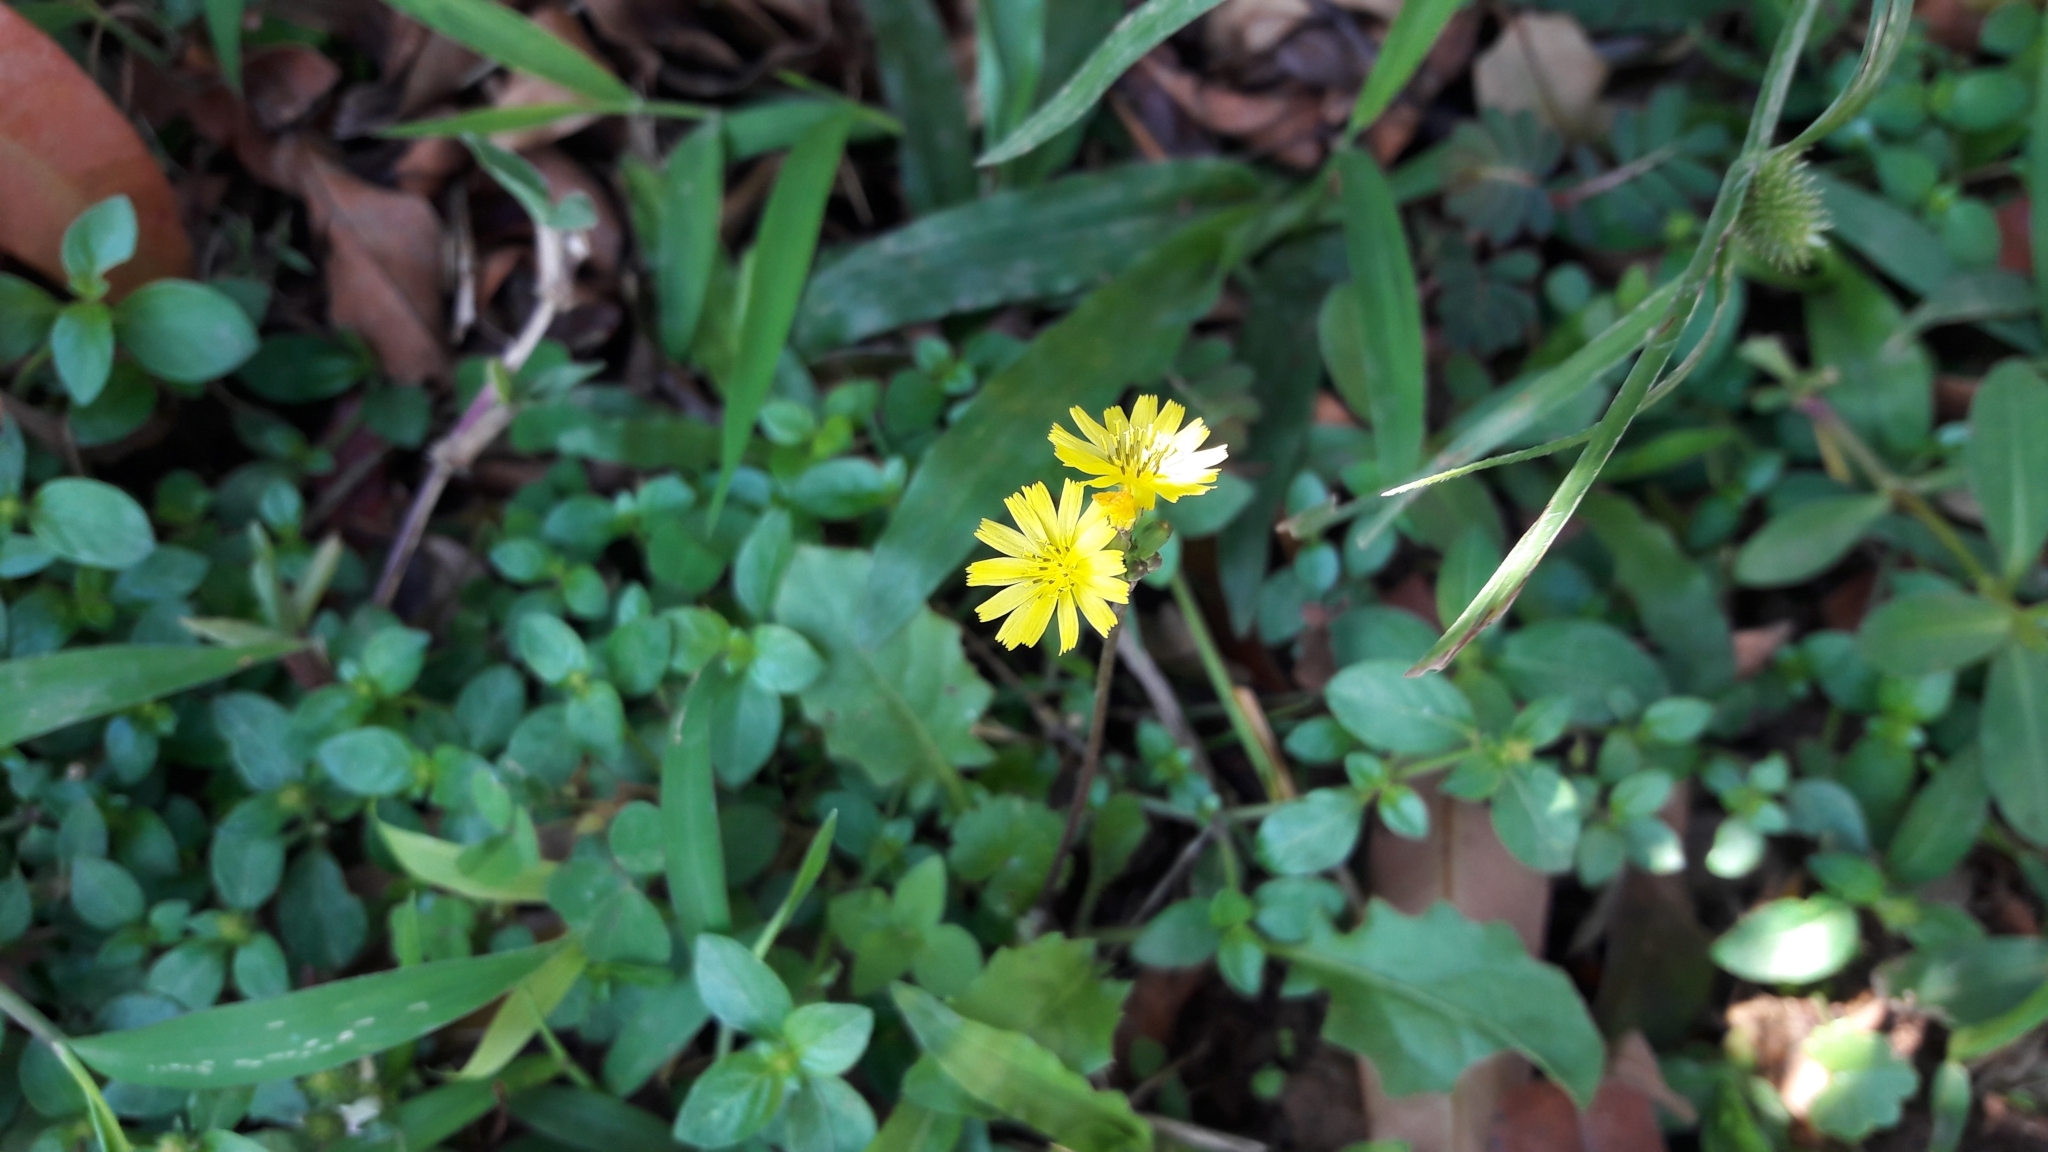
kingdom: Plantae
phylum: Tracheophyta
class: Magnoliopsida
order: Asterales
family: Asteraceae
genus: Youngia
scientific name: Youngia japonica
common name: Oriental false hawksbeard
